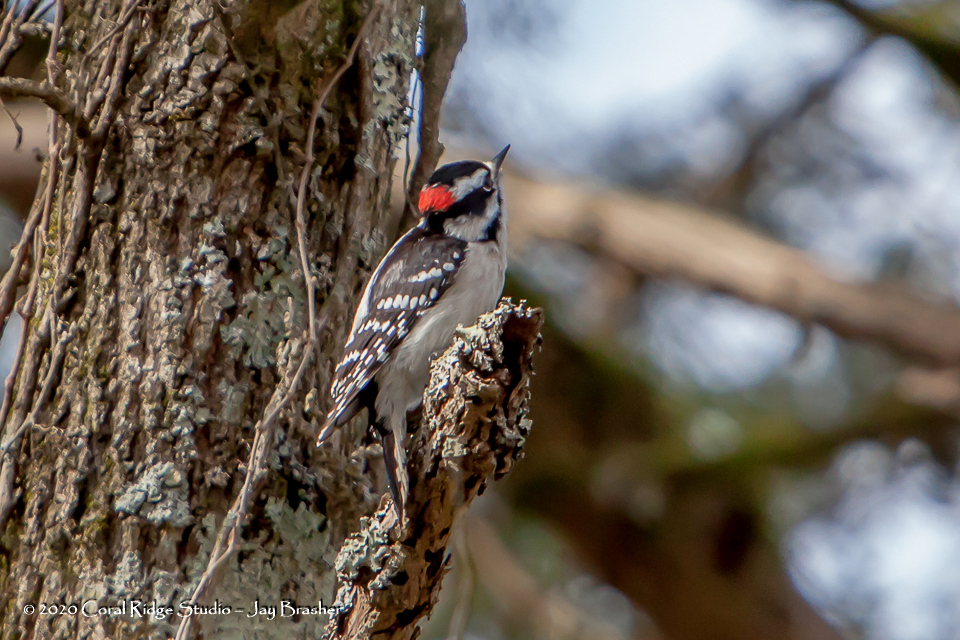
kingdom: Animalia
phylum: Chordata
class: Aves
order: Piciformes
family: Picidae
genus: Dryobates
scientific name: Dryobates pubescens
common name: Downy woodpecker
